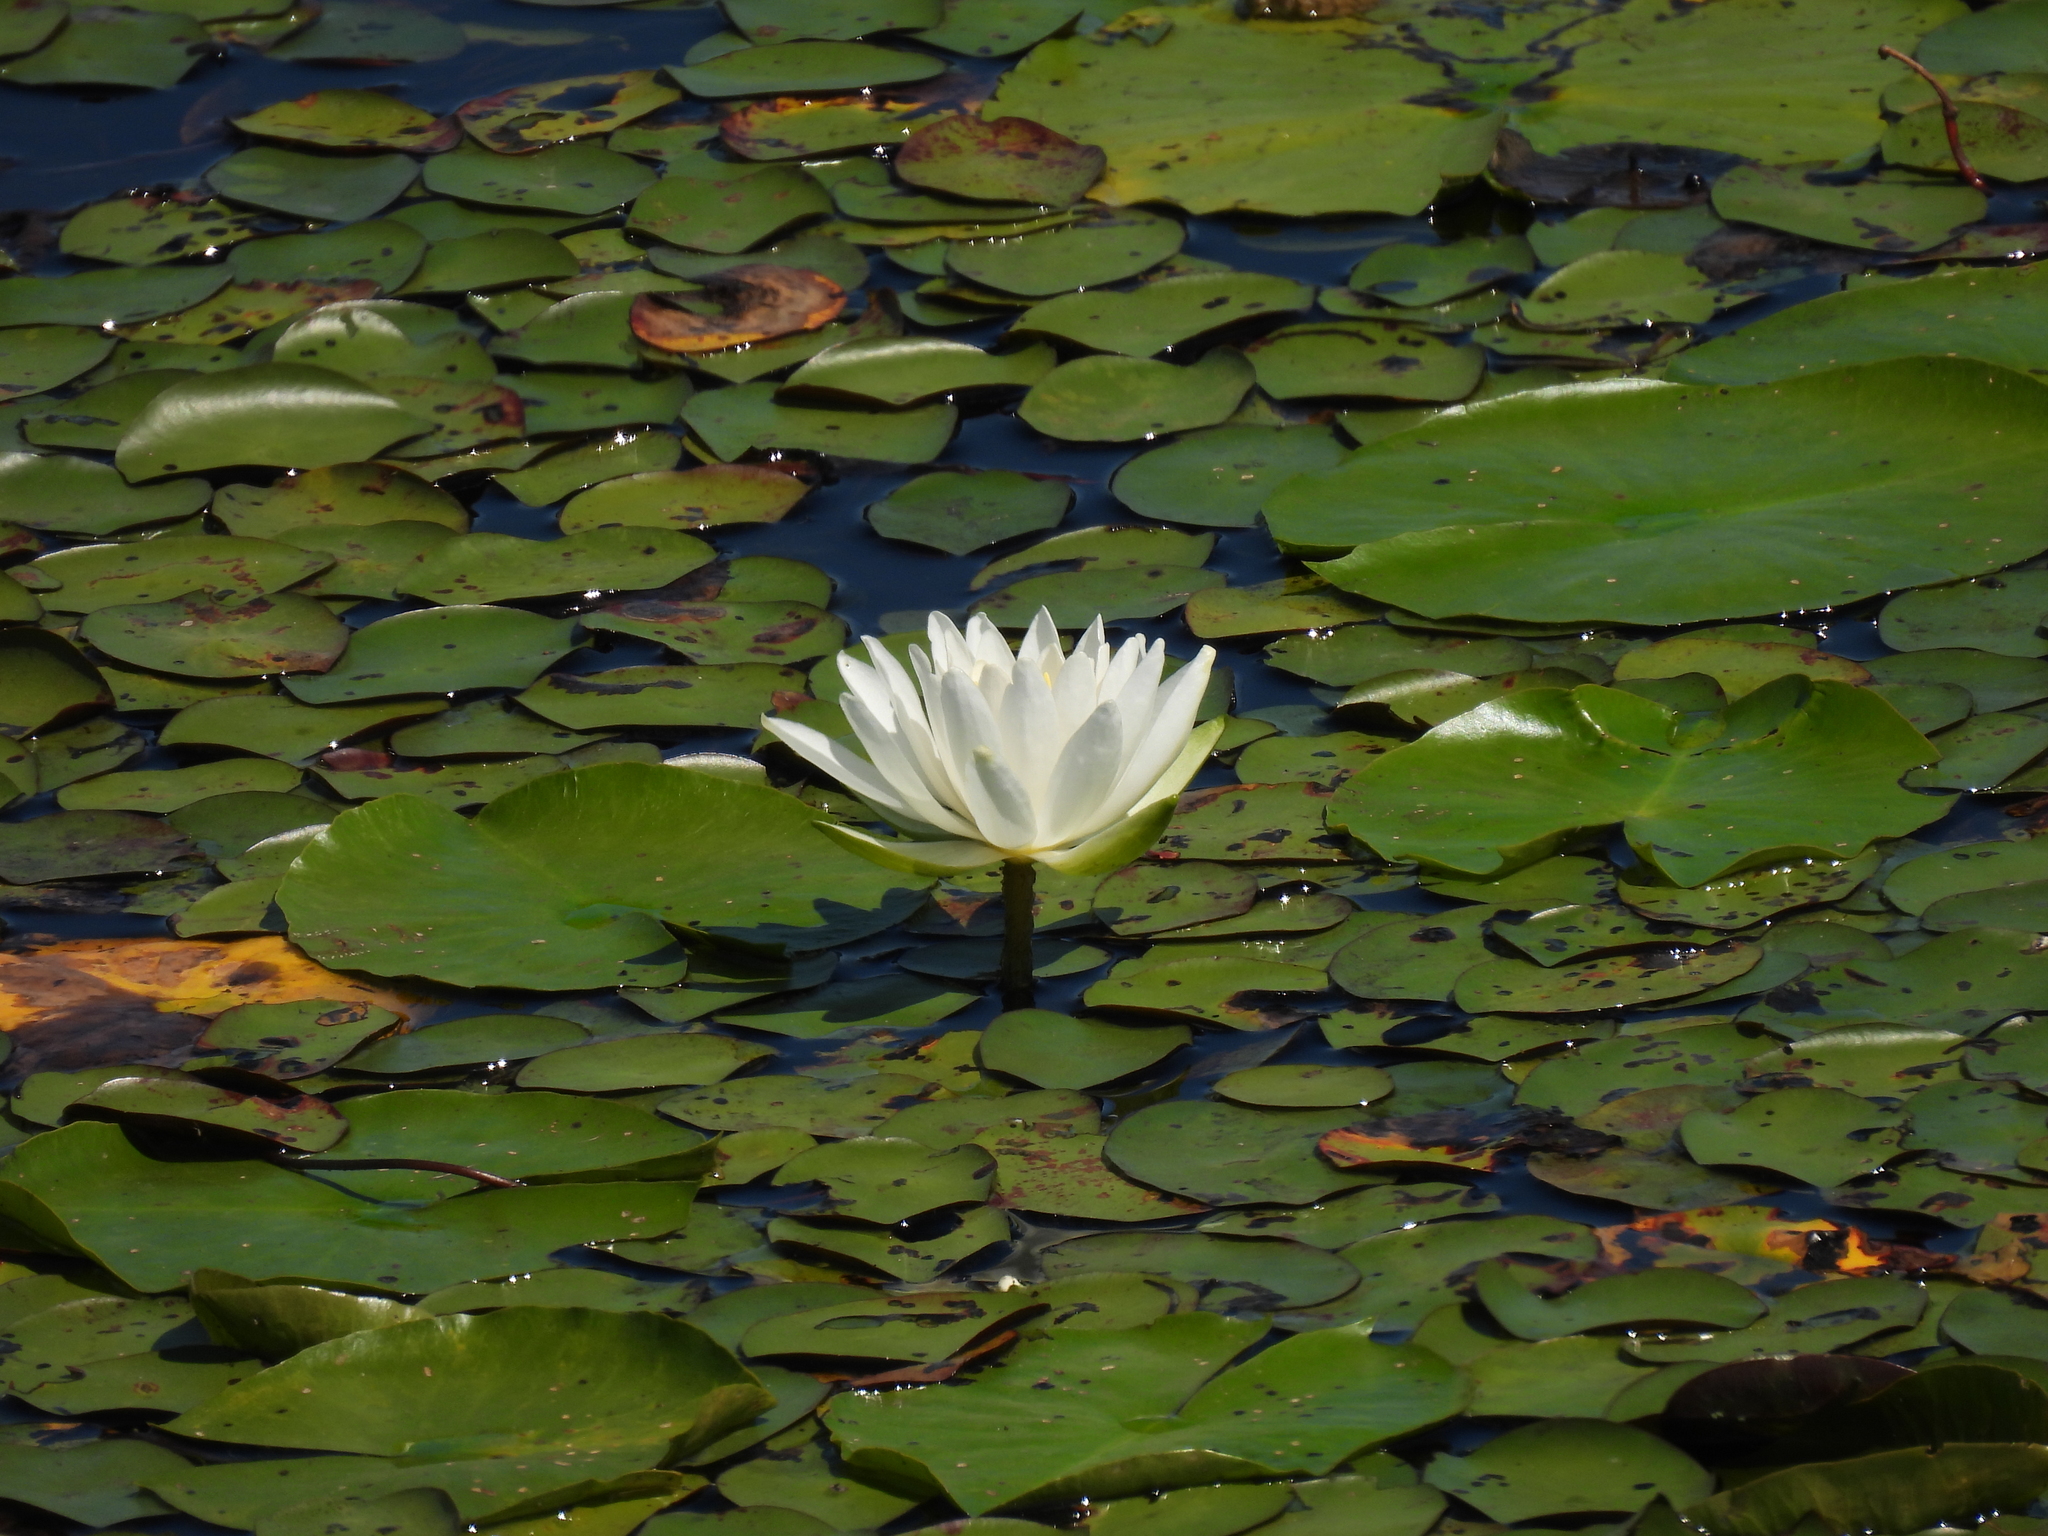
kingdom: Plantae
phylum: Tracheophyta
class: Magnoliopsida
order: Nymphaeales
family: Nymphaeaceae
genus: Nymphaea
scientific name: Nymphaea odorata
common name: Fragrant water-lily
